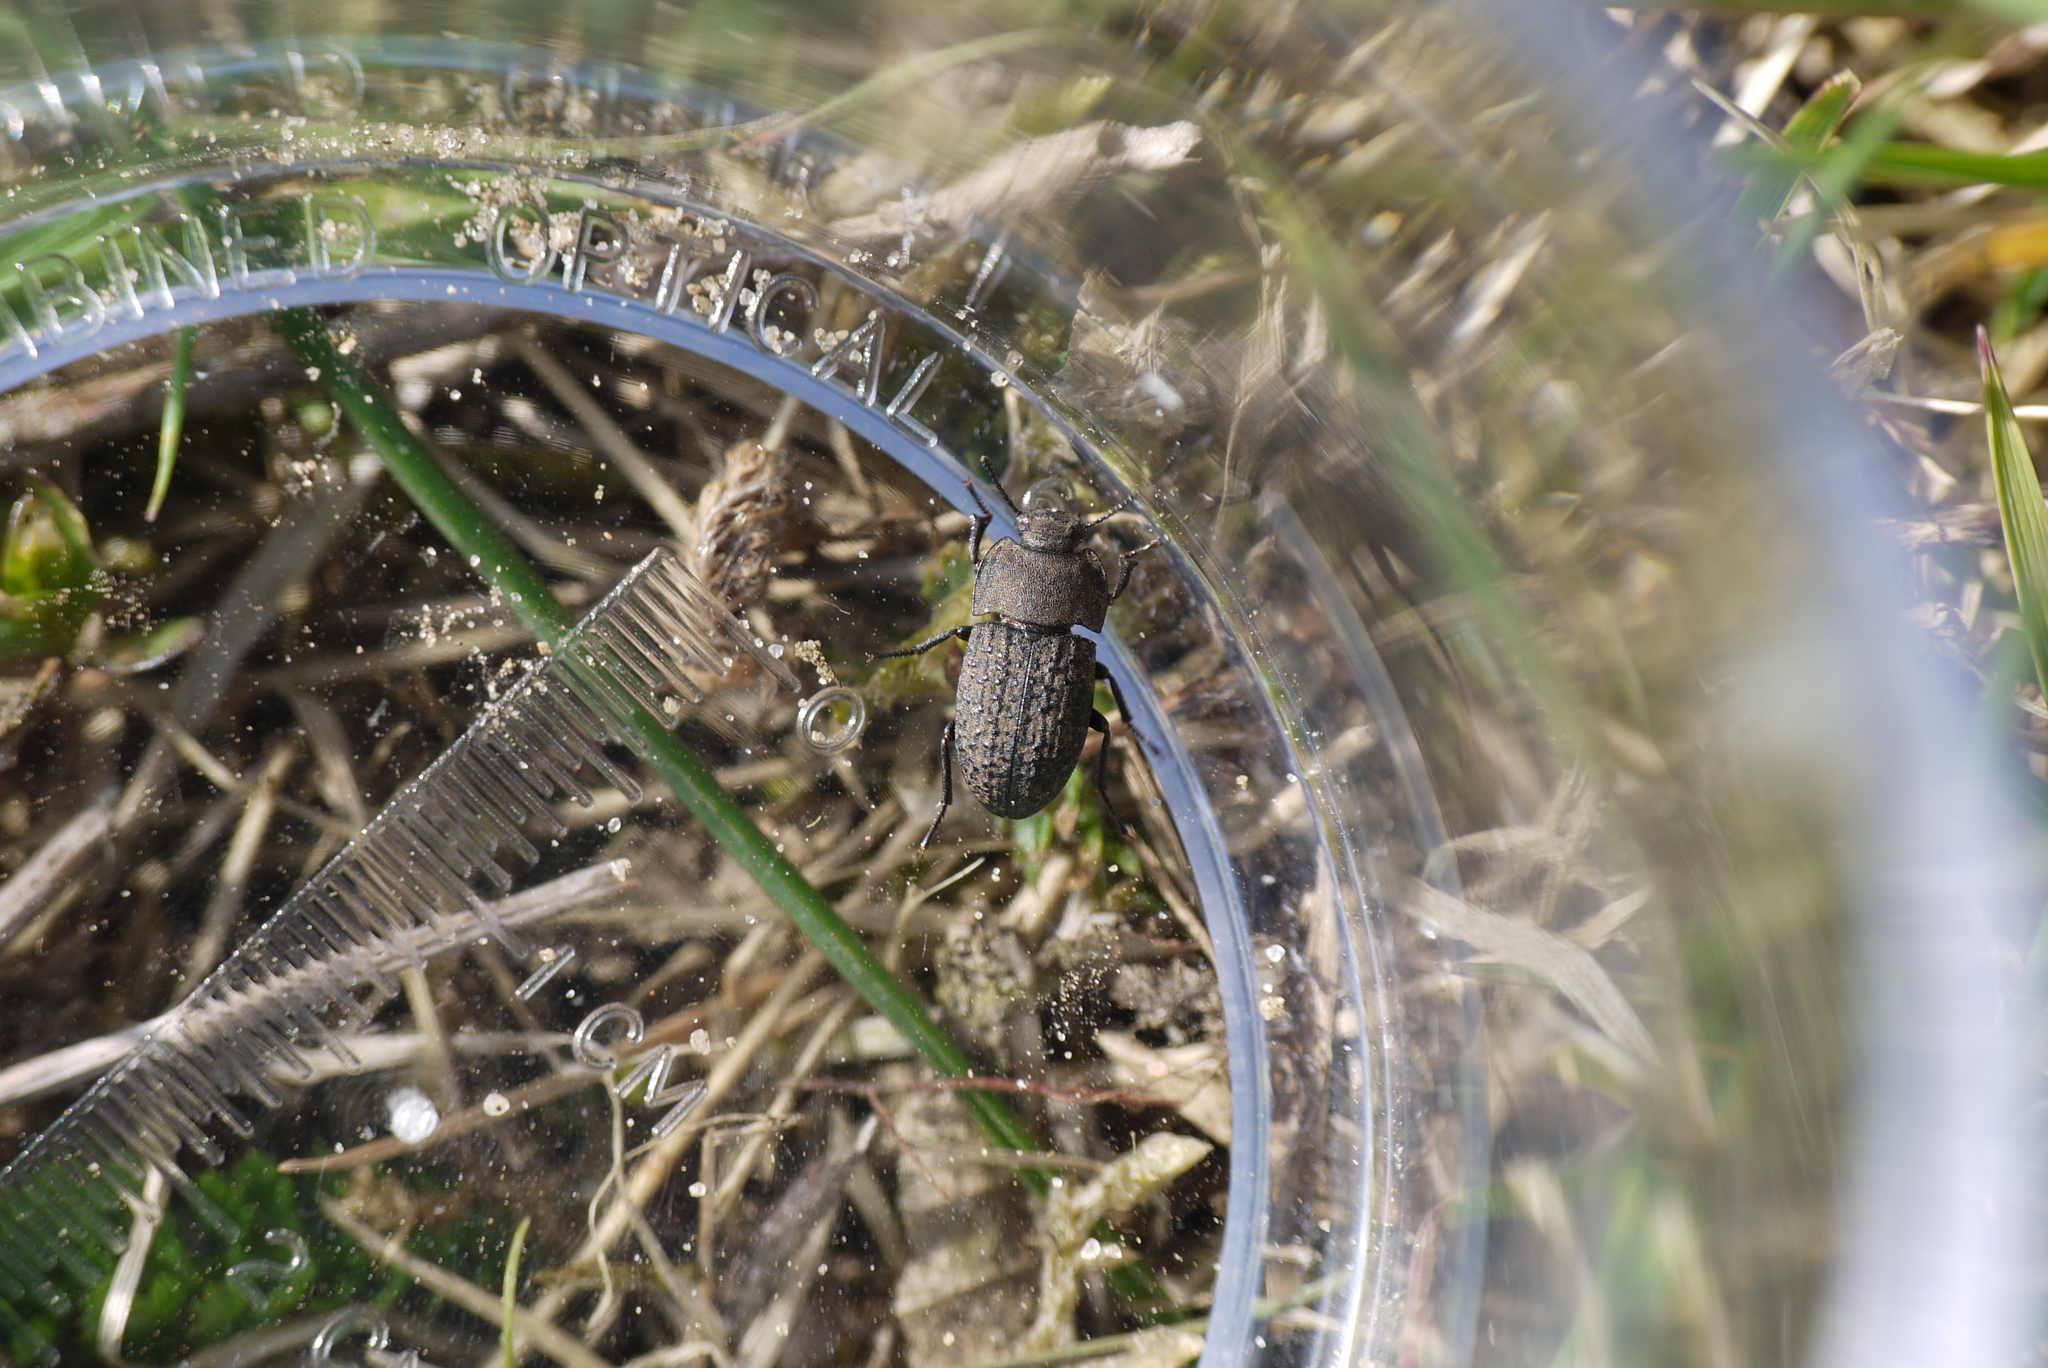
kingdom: Animalia
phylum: Arthropoda
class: Insecta
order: Coleoptera
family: Tenebrionidae
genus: Opatrum
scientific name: Opatrum sabulosum
